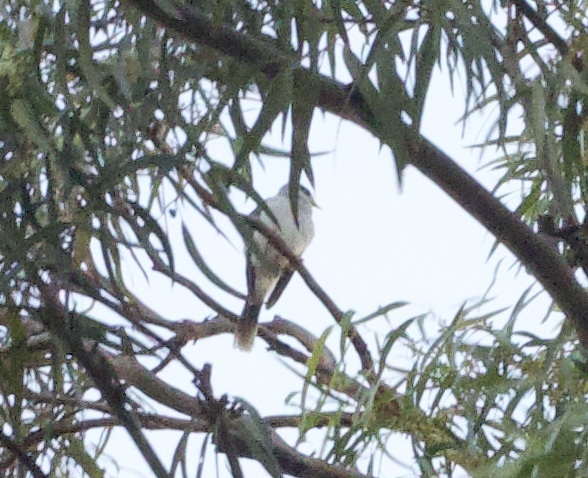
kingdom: Animalia
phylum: Chordata
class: Aves
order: Passeriformes
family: Meliphagidae
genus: Manorina
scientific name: Manorina melanocephala
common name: Noisy miner
